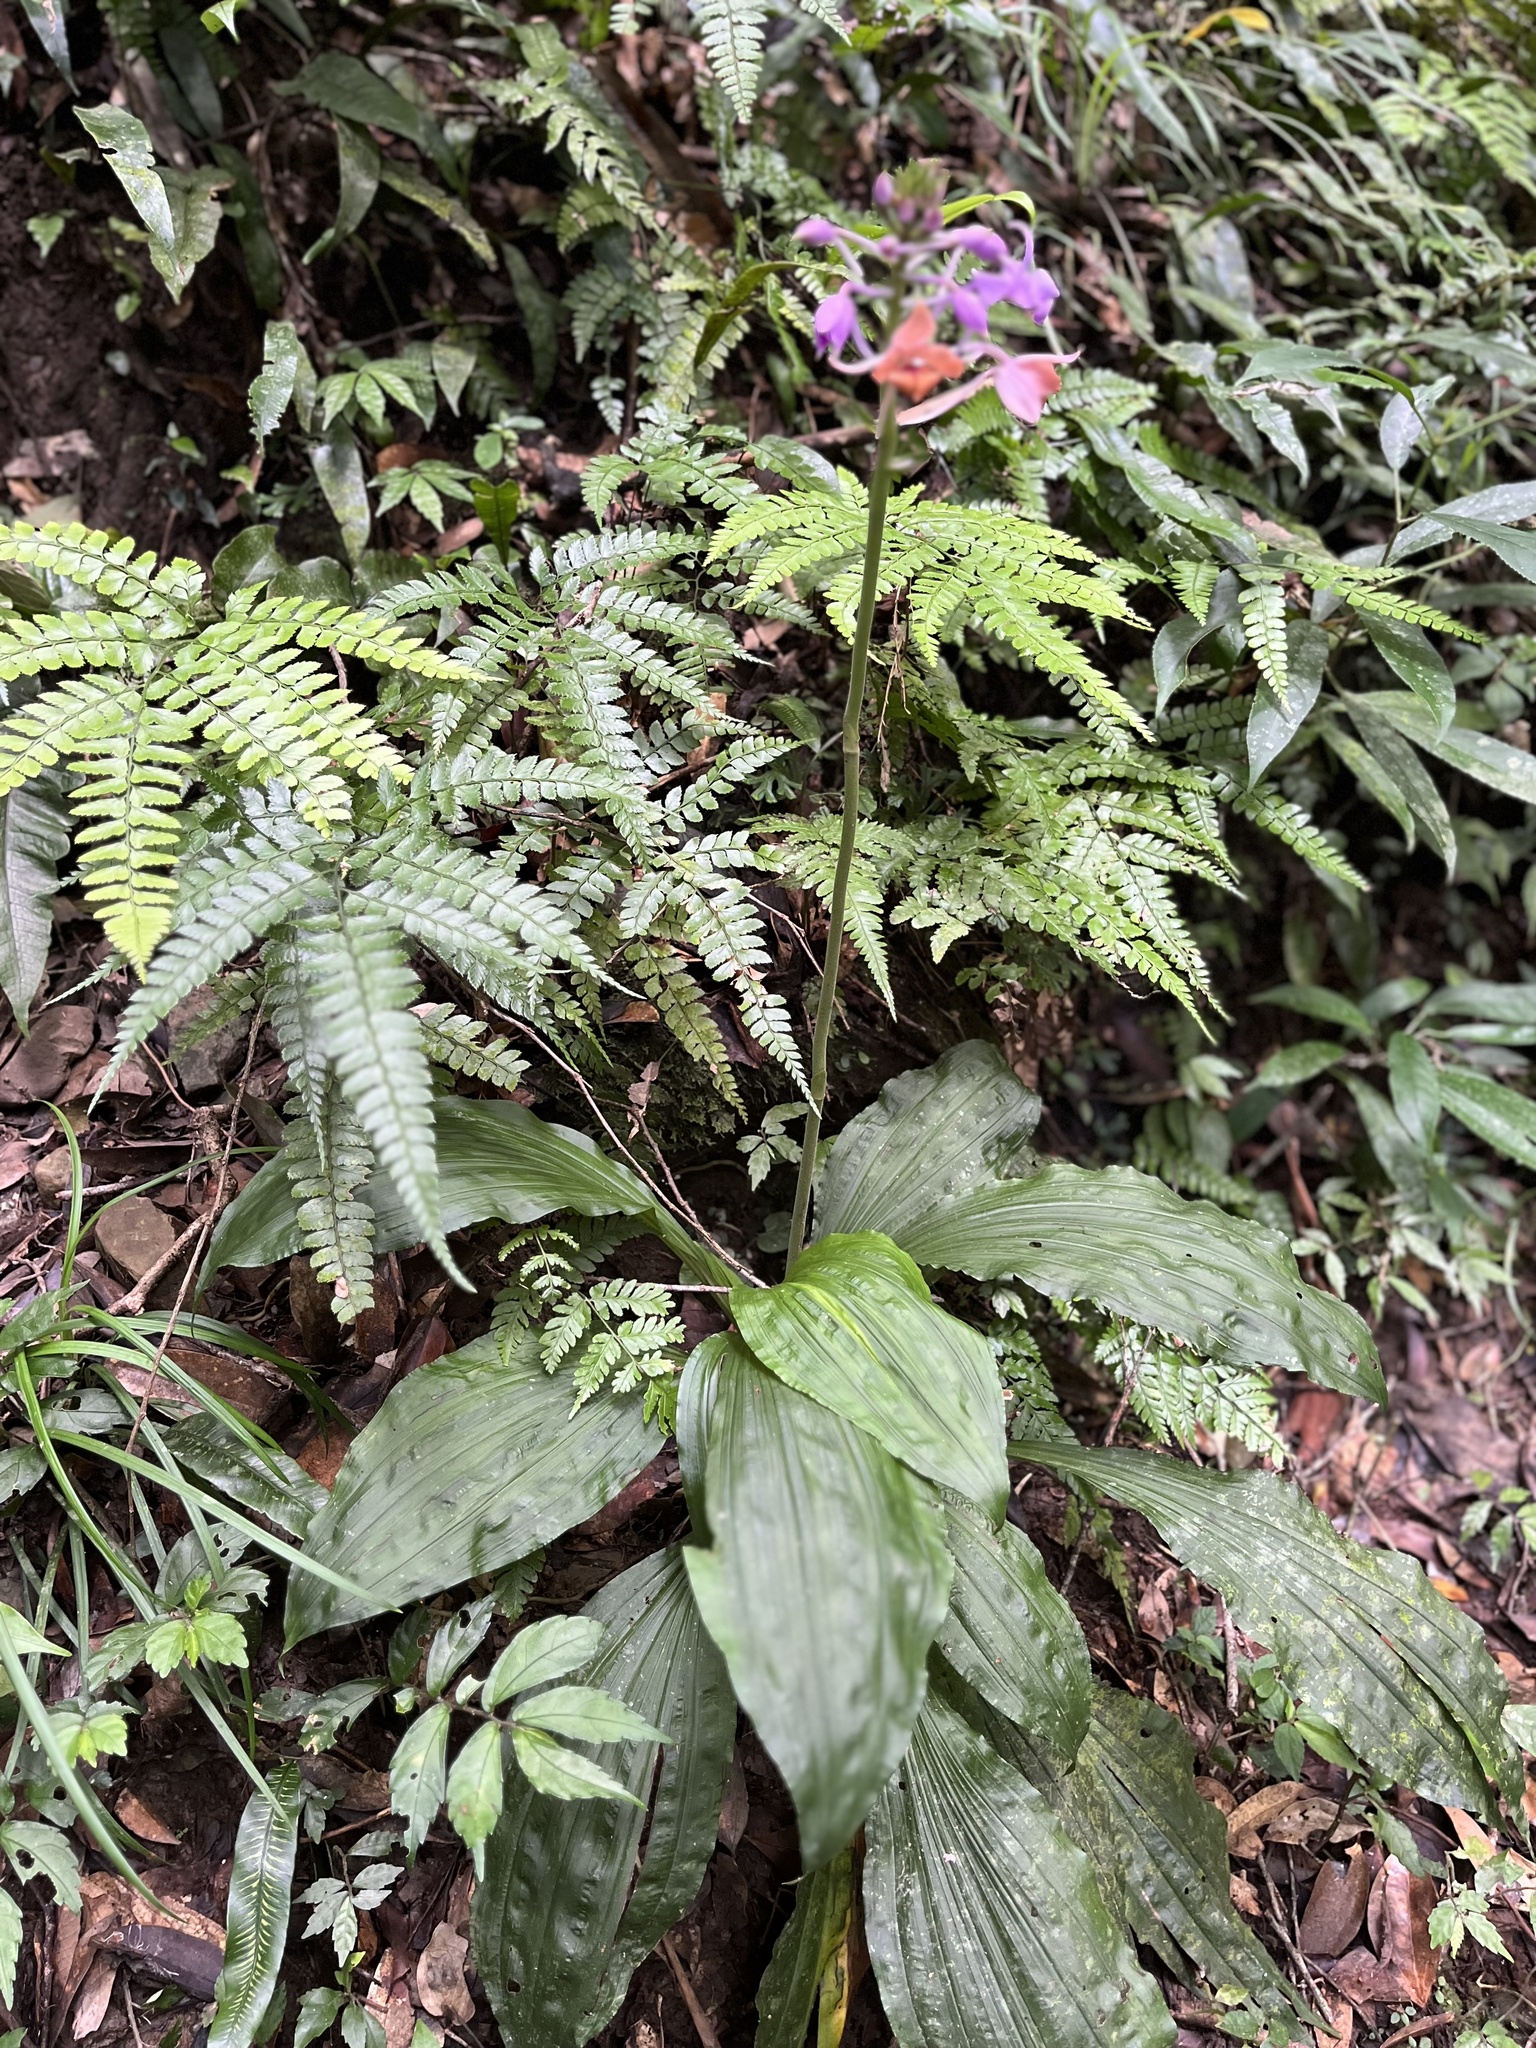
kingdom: Plantae
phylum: Tracheophyta
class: Polypodiopsida
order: Polypodiales
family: Thelypteridaceae
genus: Stegnogramma
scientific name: Stegnogramma wilfordii
